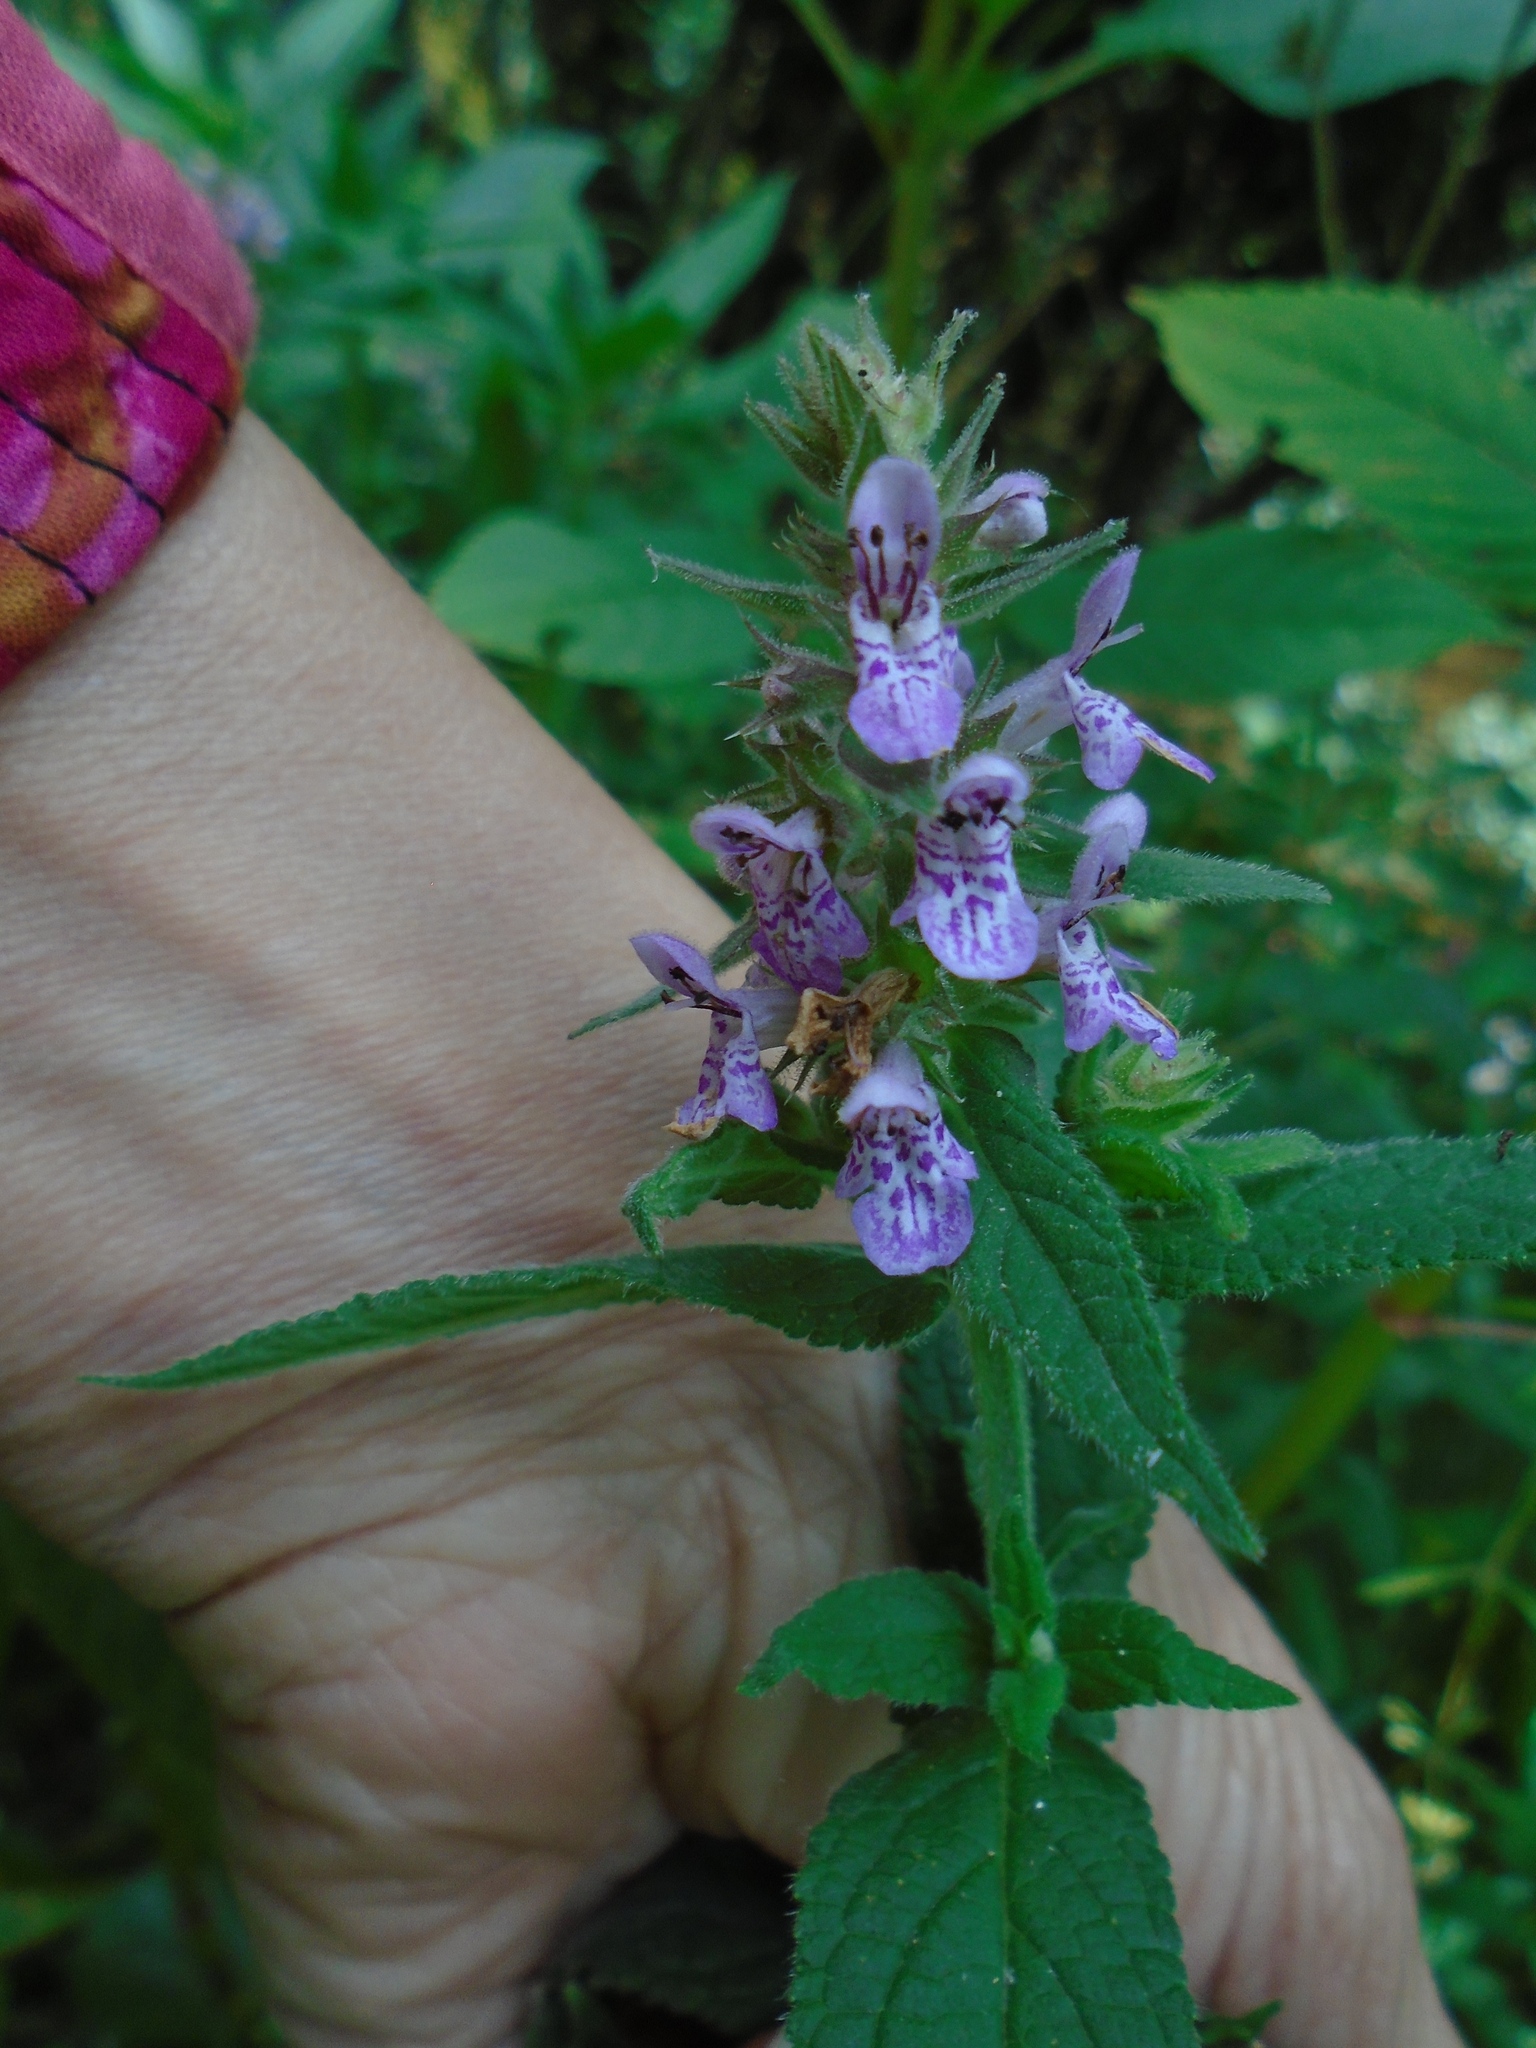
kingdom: Plantae
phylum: Tracheophyta
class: Magnoliopsida
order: Lamiales
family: Lamiaceae
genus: Stachys
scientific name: Stachys palustris
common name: Marsh woundwort
